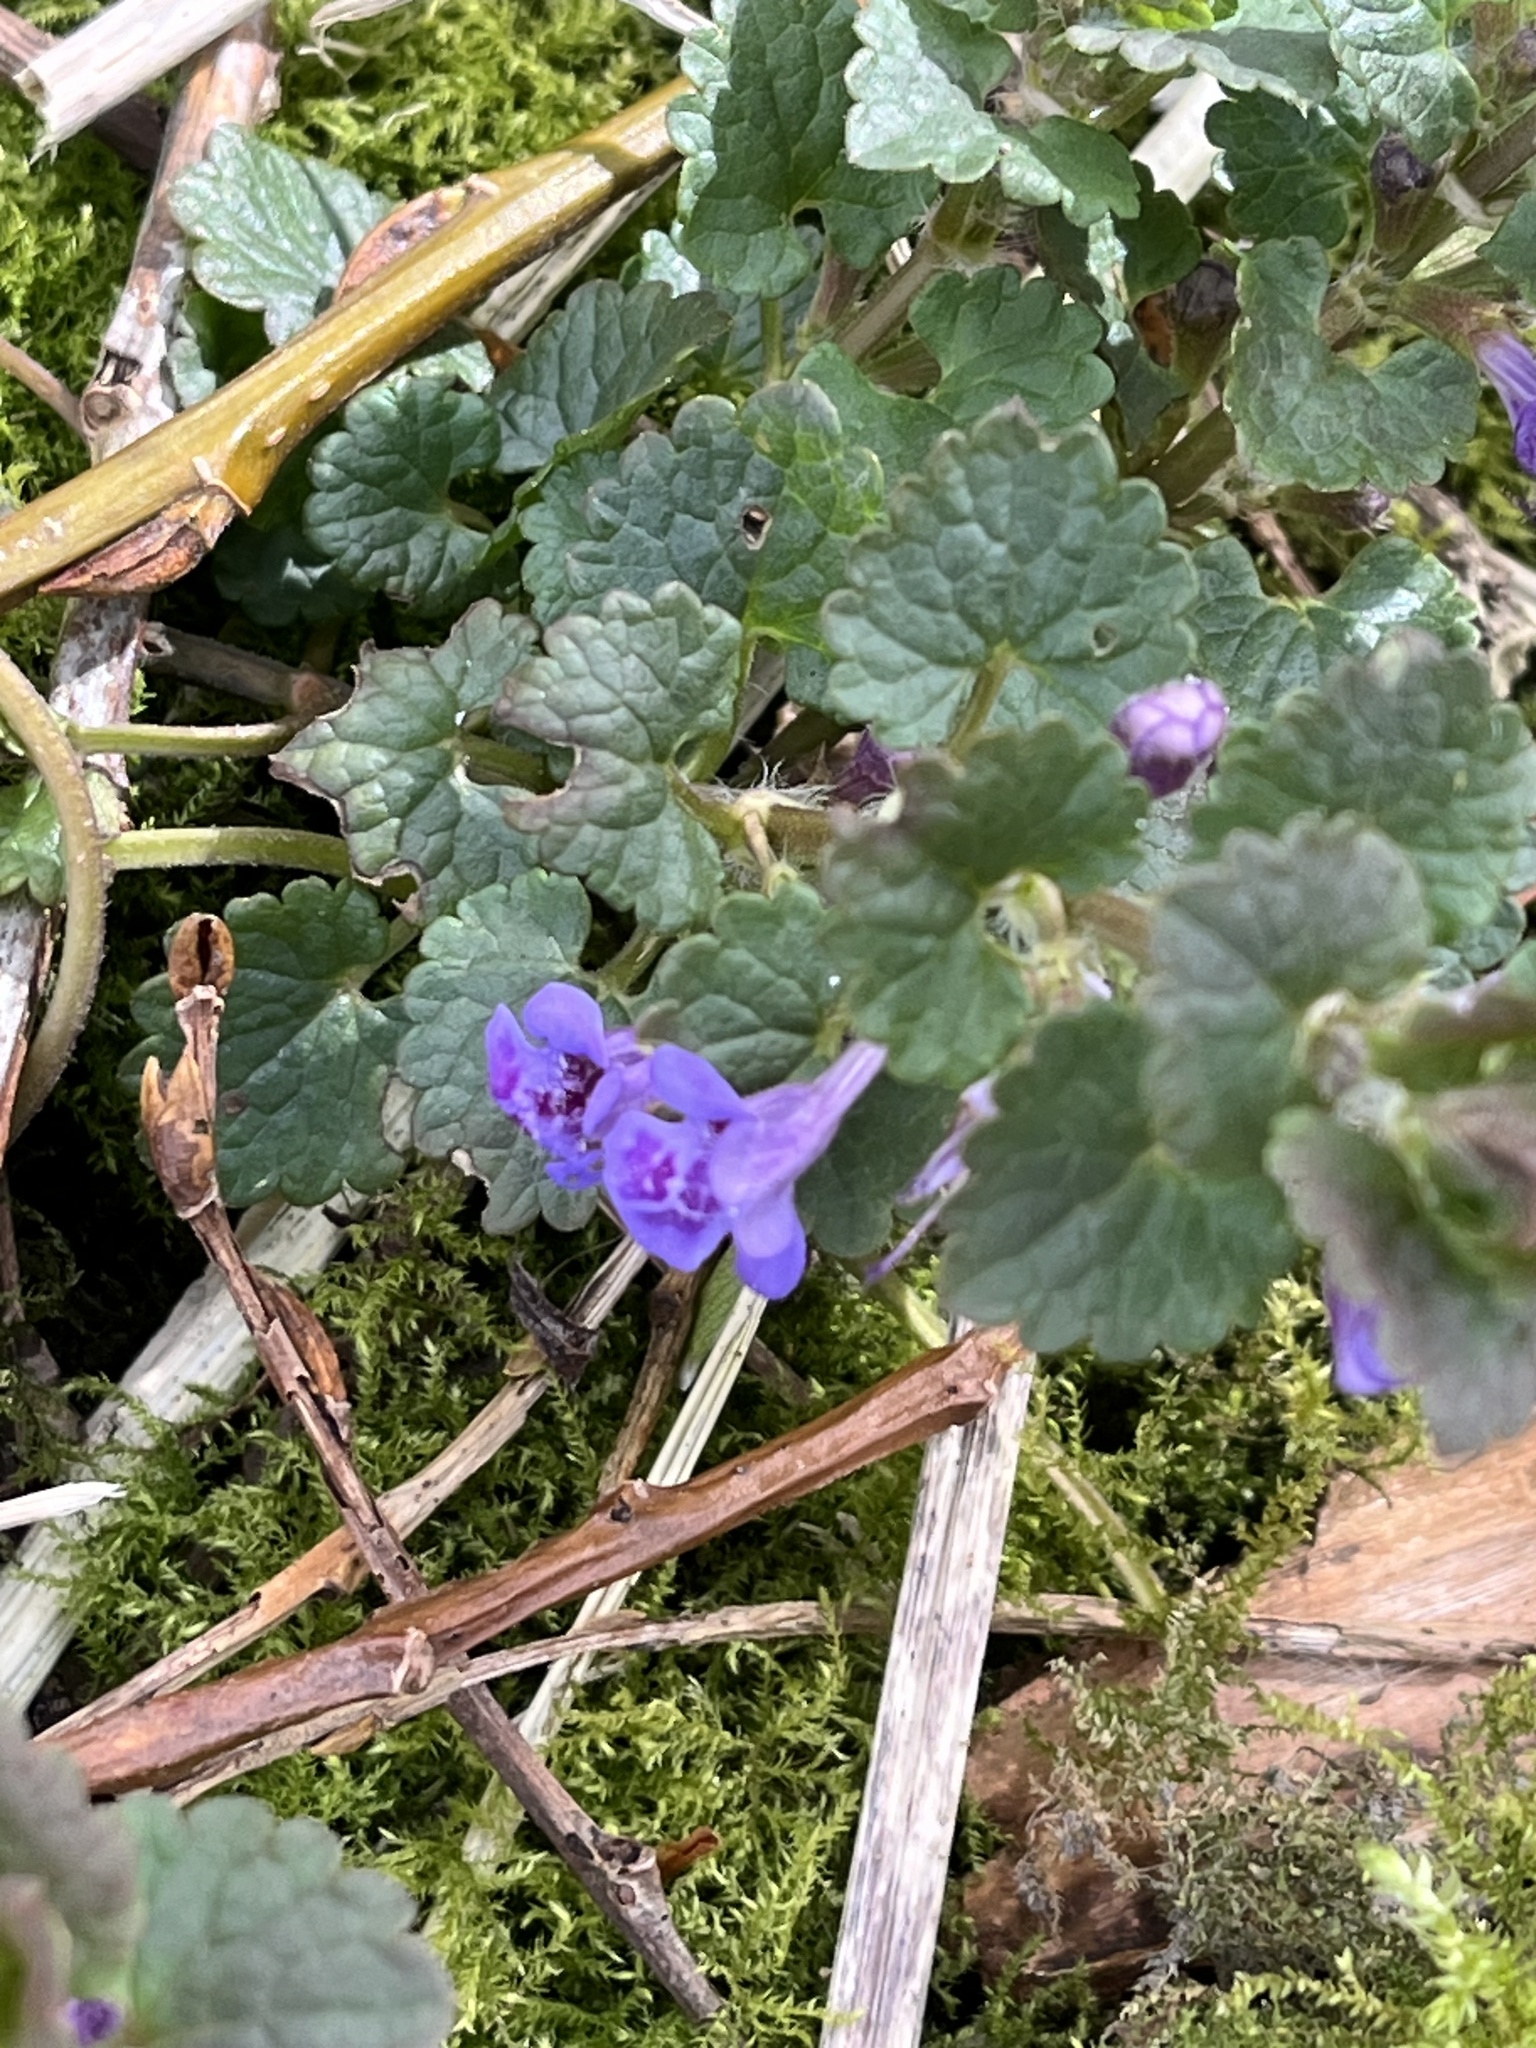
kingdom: Plantae
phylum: Tracheophyta
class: Magnoliopsida
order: Lamiales
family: Lamiaceae
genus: Glechoma
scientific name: Glechoma hederacea
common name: Ground ivy
